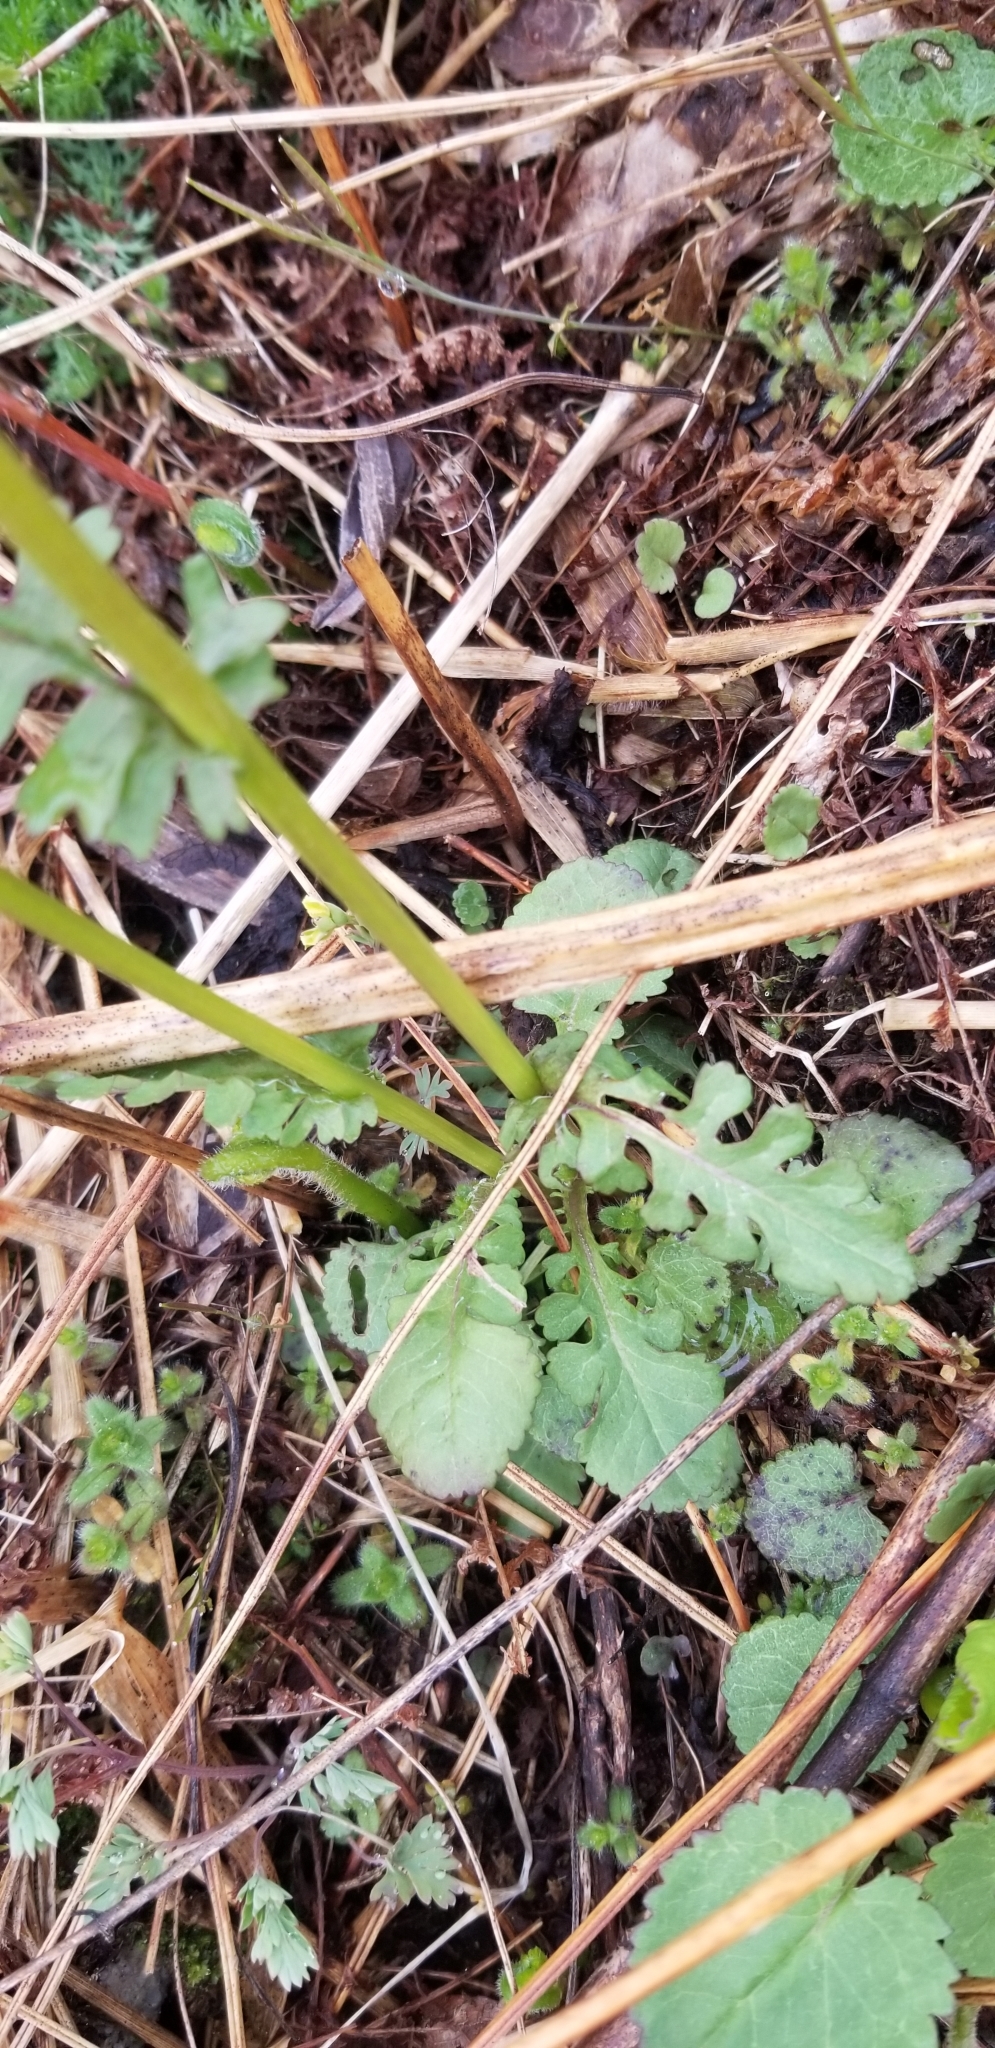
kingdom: Plantae
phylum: Tracheophyta
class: Magnoliopsida
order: Asterales
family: Asteraceae
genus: Packera
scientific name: Packera obovata
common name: Round-leaf ragwort
